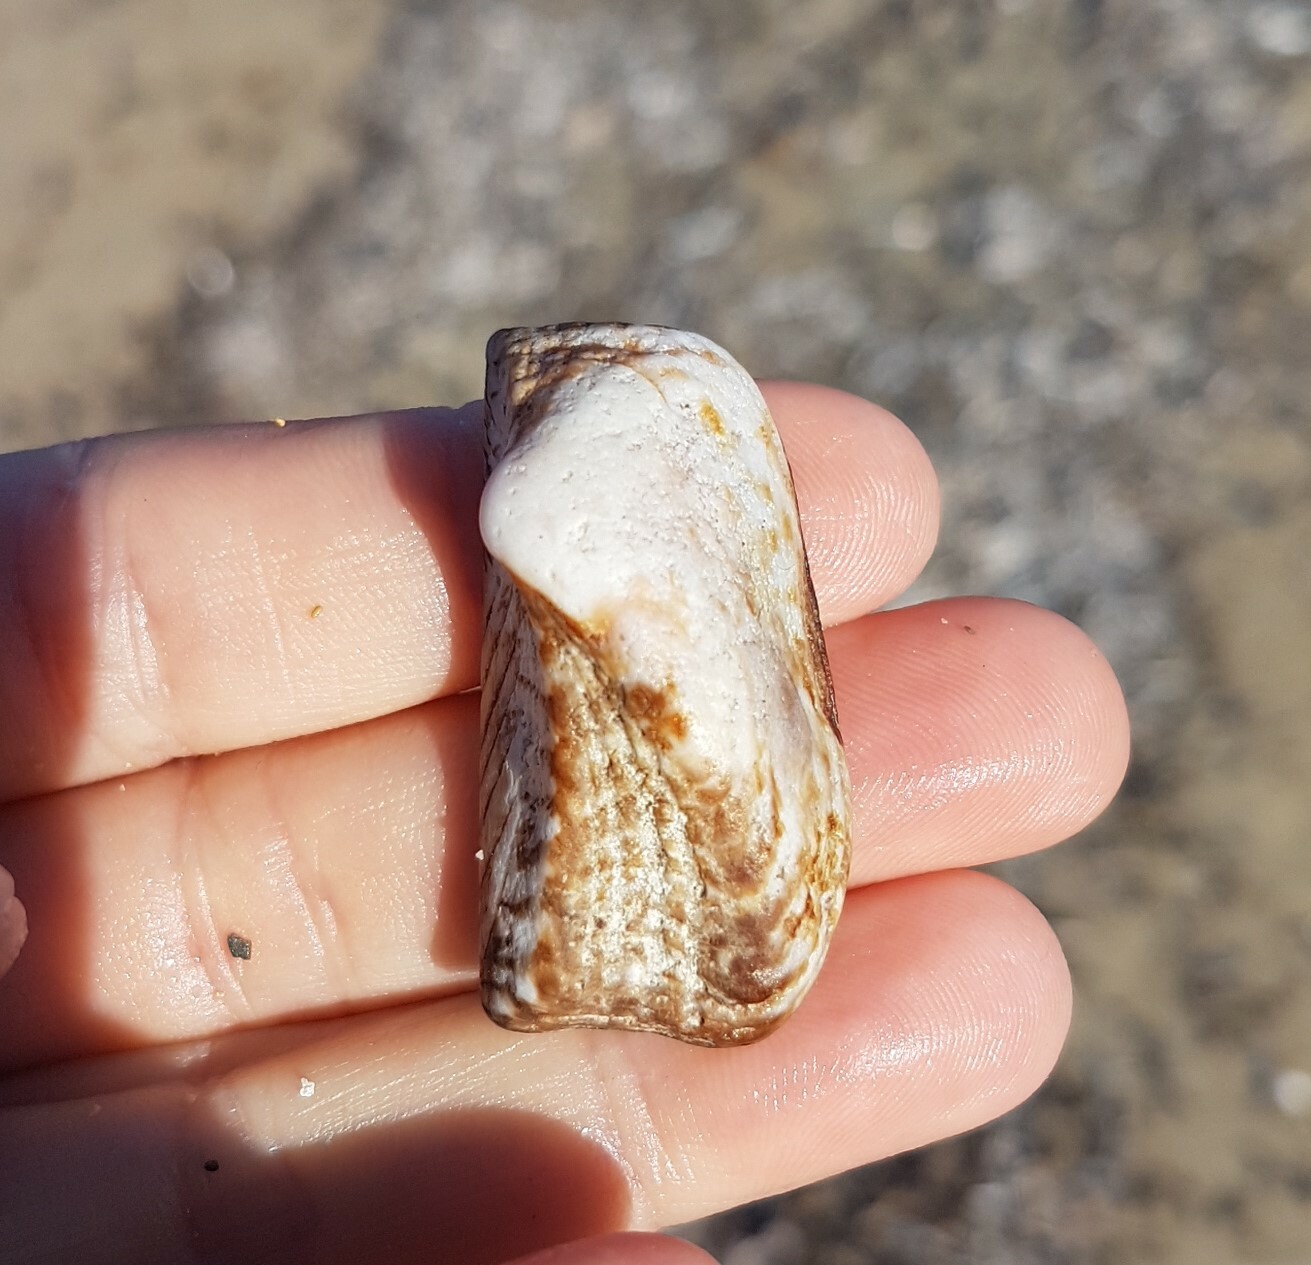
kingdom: Animalia
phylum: Mollusca
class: Bivalvia
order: Arcida
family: Arcidae
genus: Arca
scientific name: Arca noae
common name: Noah's arch
